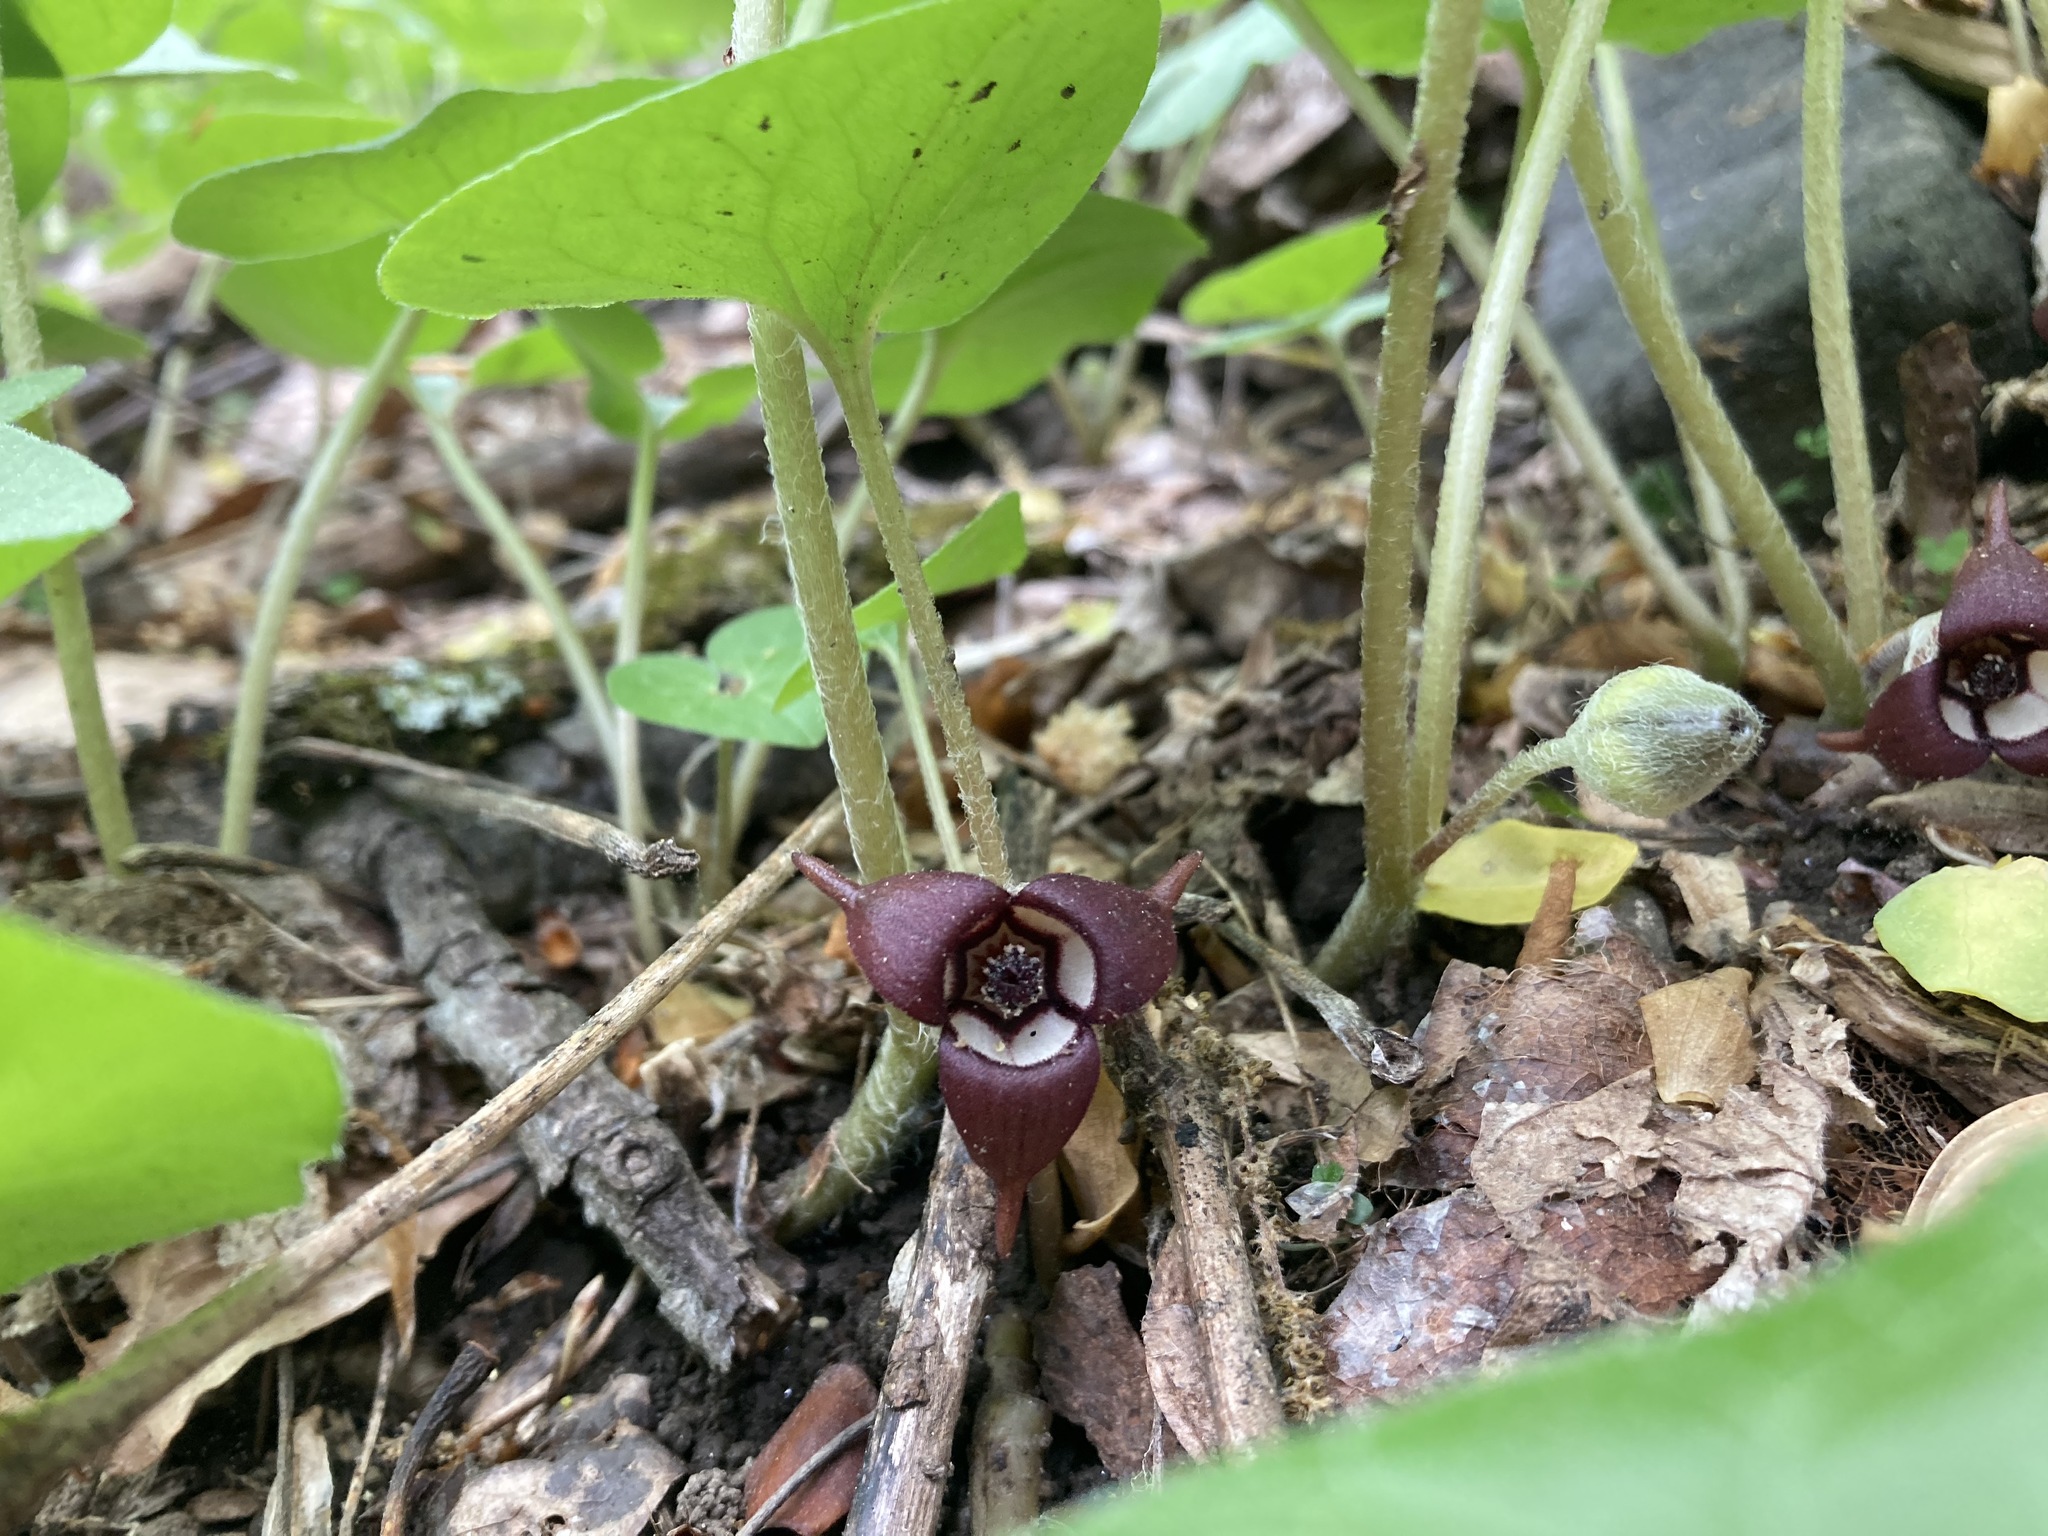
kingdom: Plantae
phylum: Tracheophyta
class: Magnoliopsida
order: Piperales
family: Aristolochiaceae
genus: Asarum
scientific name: Asarum canadense
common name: Wild ginger
